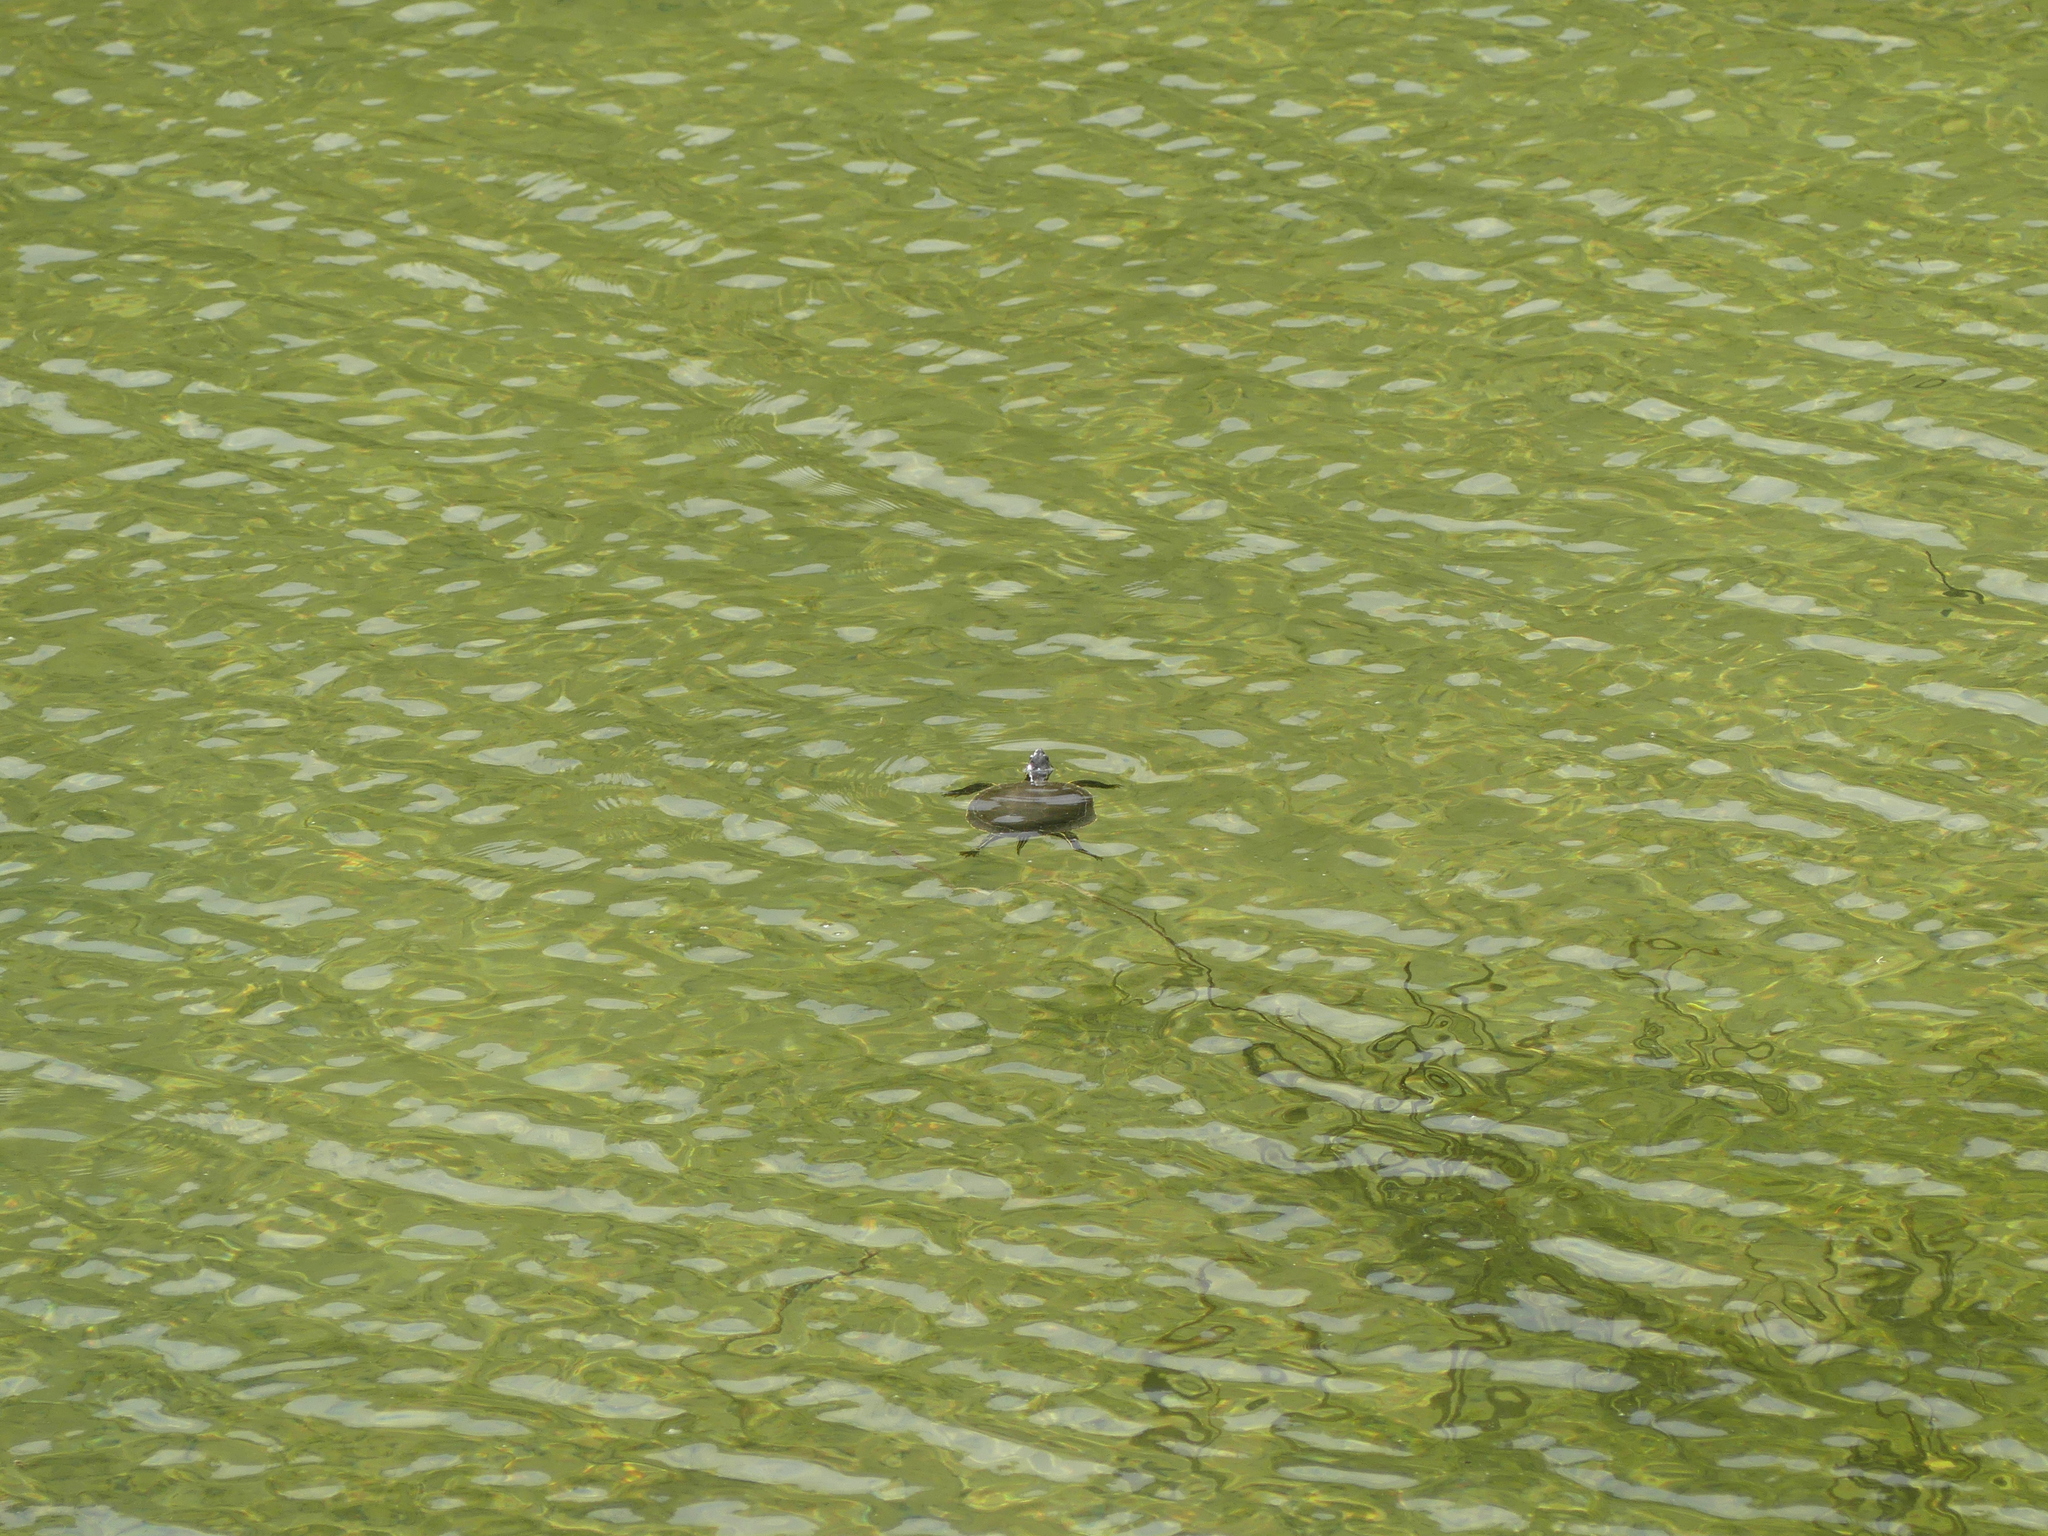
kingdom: Animalia
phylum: Chordata
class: Testudines
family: Emydidae
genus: Chrysemys
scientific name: Chrysemys picta
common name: Painted turtle
